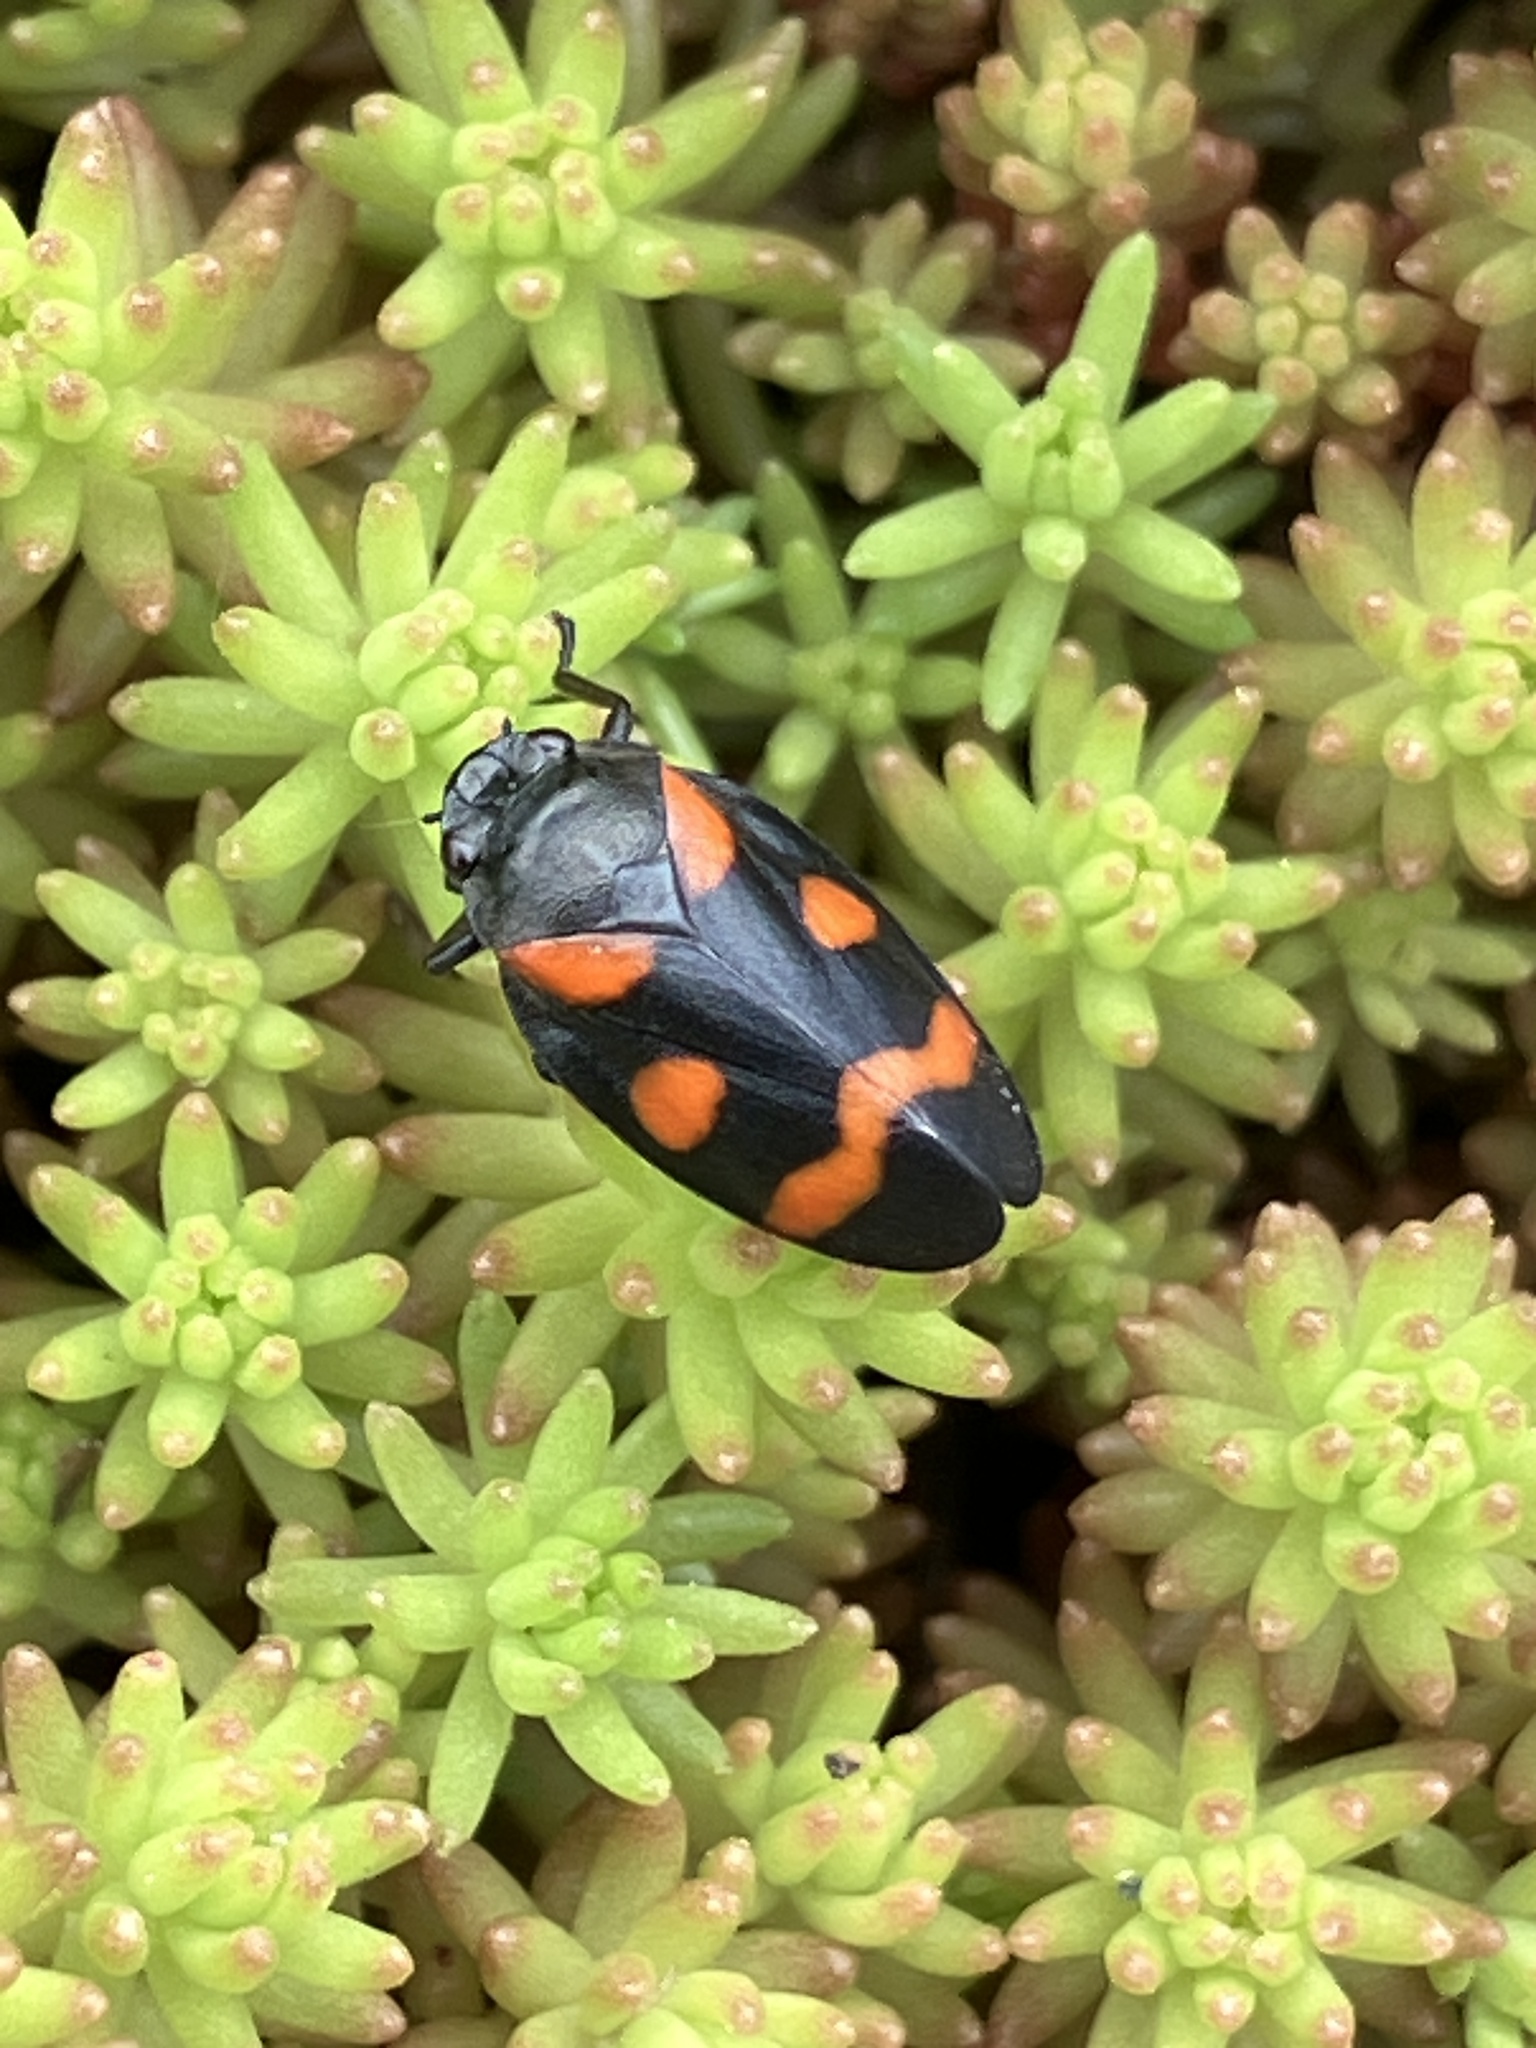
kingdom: Animalia
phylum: Arthropoda
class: Insecta
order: Hemiptera
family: Cercopidae
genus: Cercopis
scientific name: Cercopis sanguinolenta
